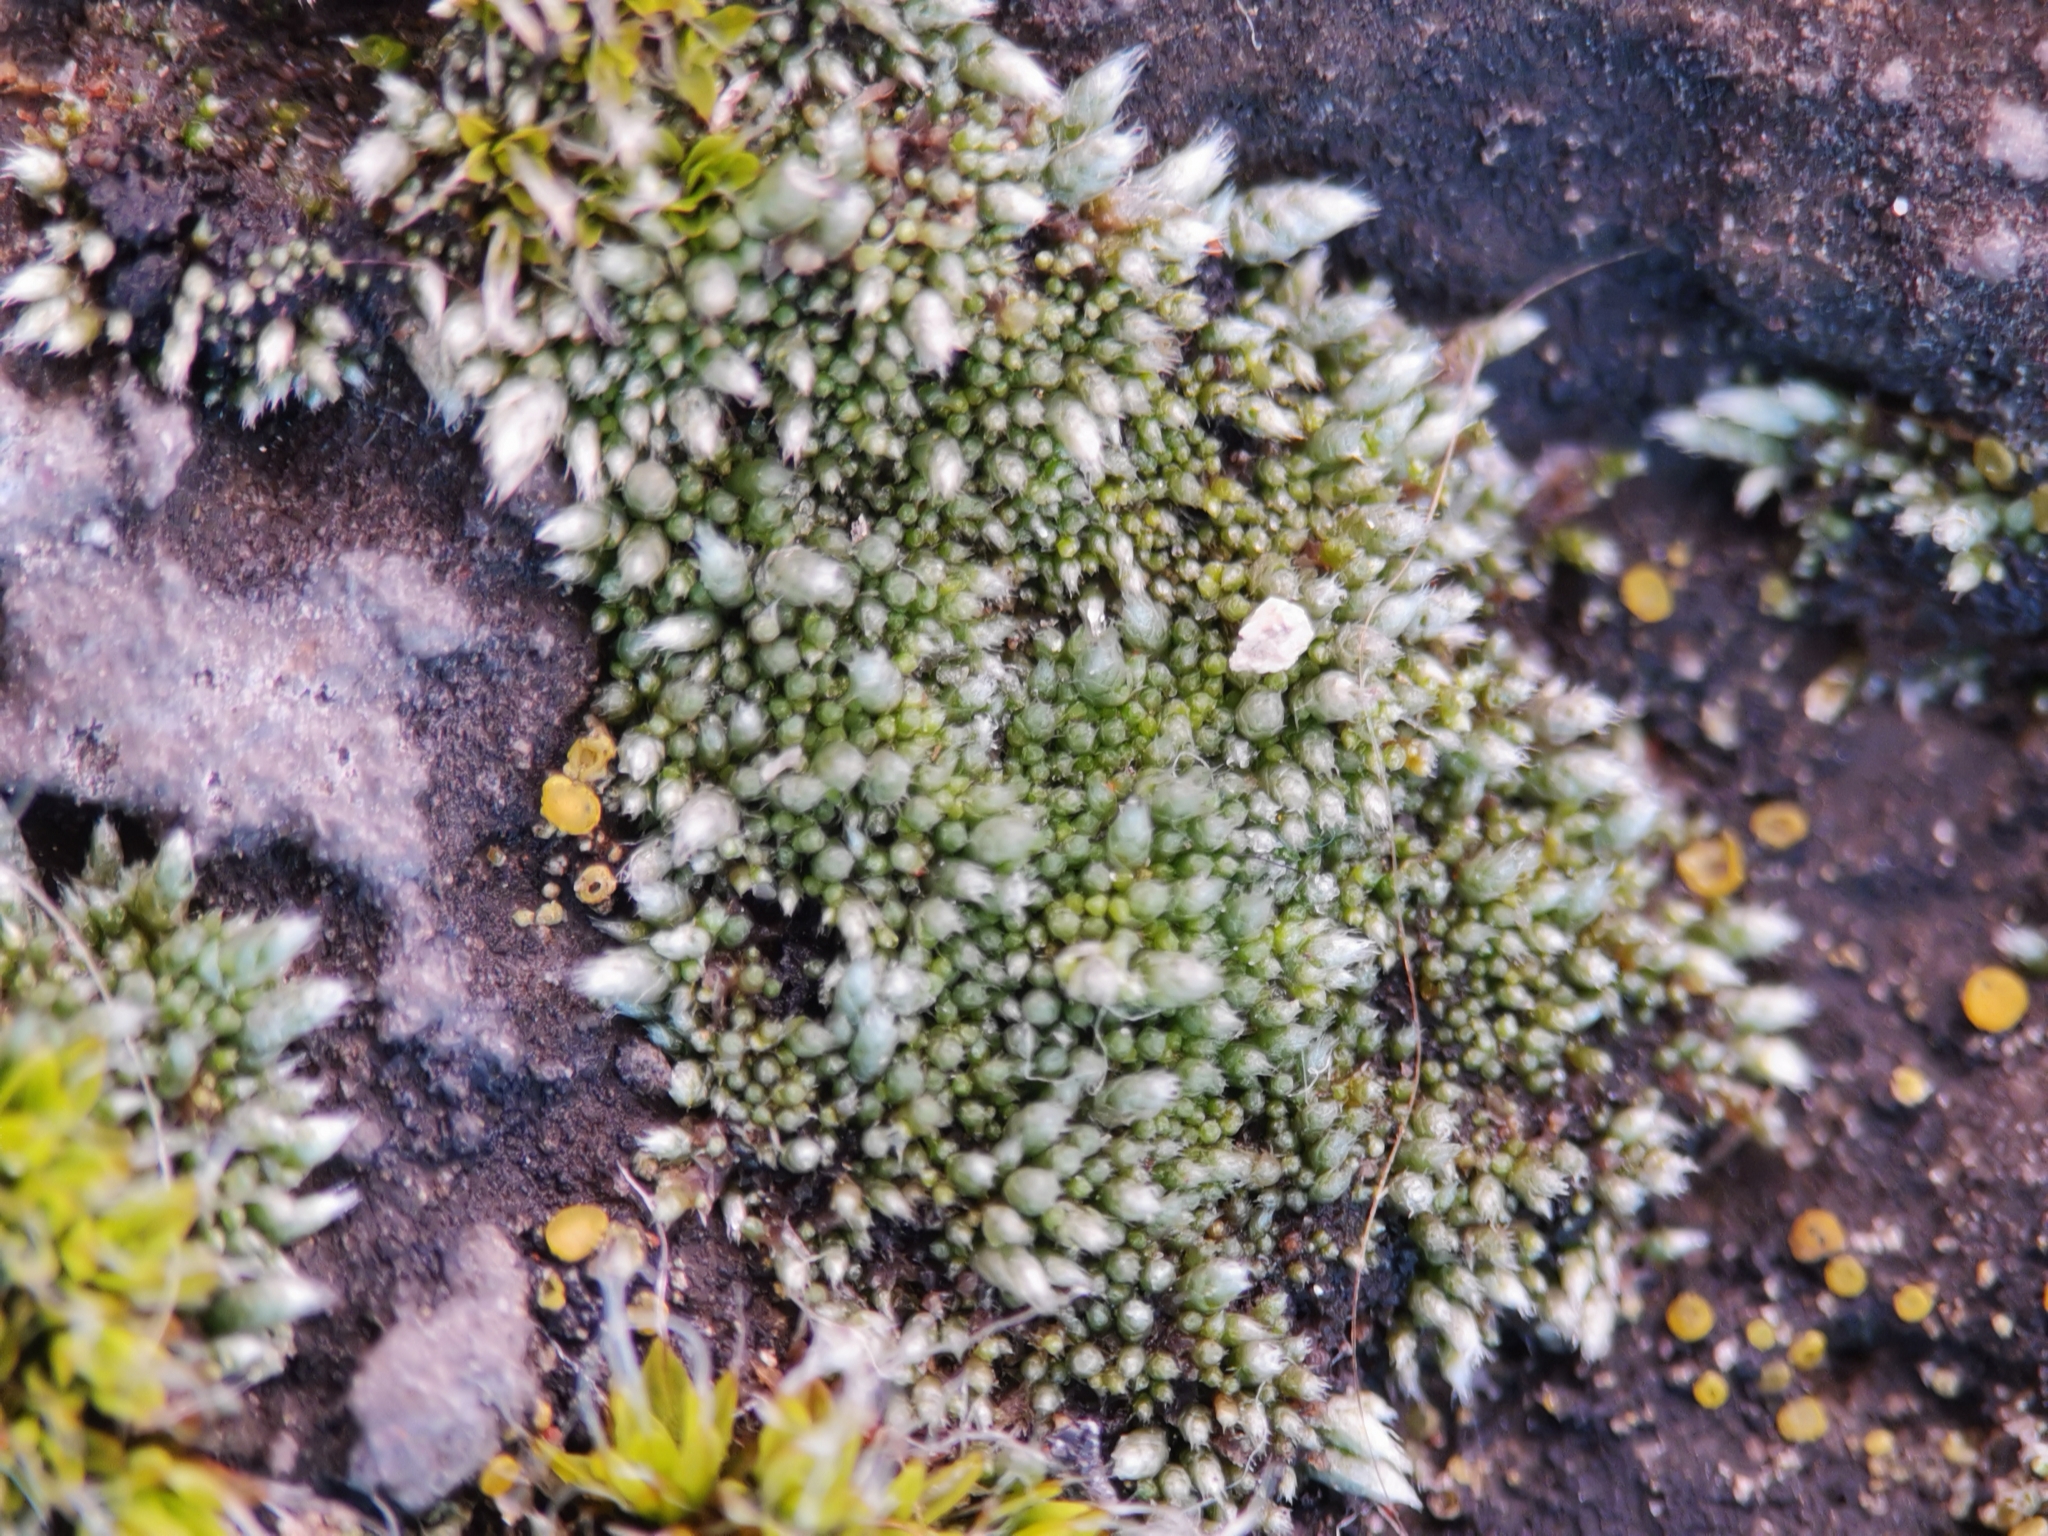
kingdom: Plantae
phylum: Bryophyta
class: Bryopsida
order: Bryales
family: Bryaceae
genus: Bryum
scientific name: Bryum argenteum
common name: Silver-moss
